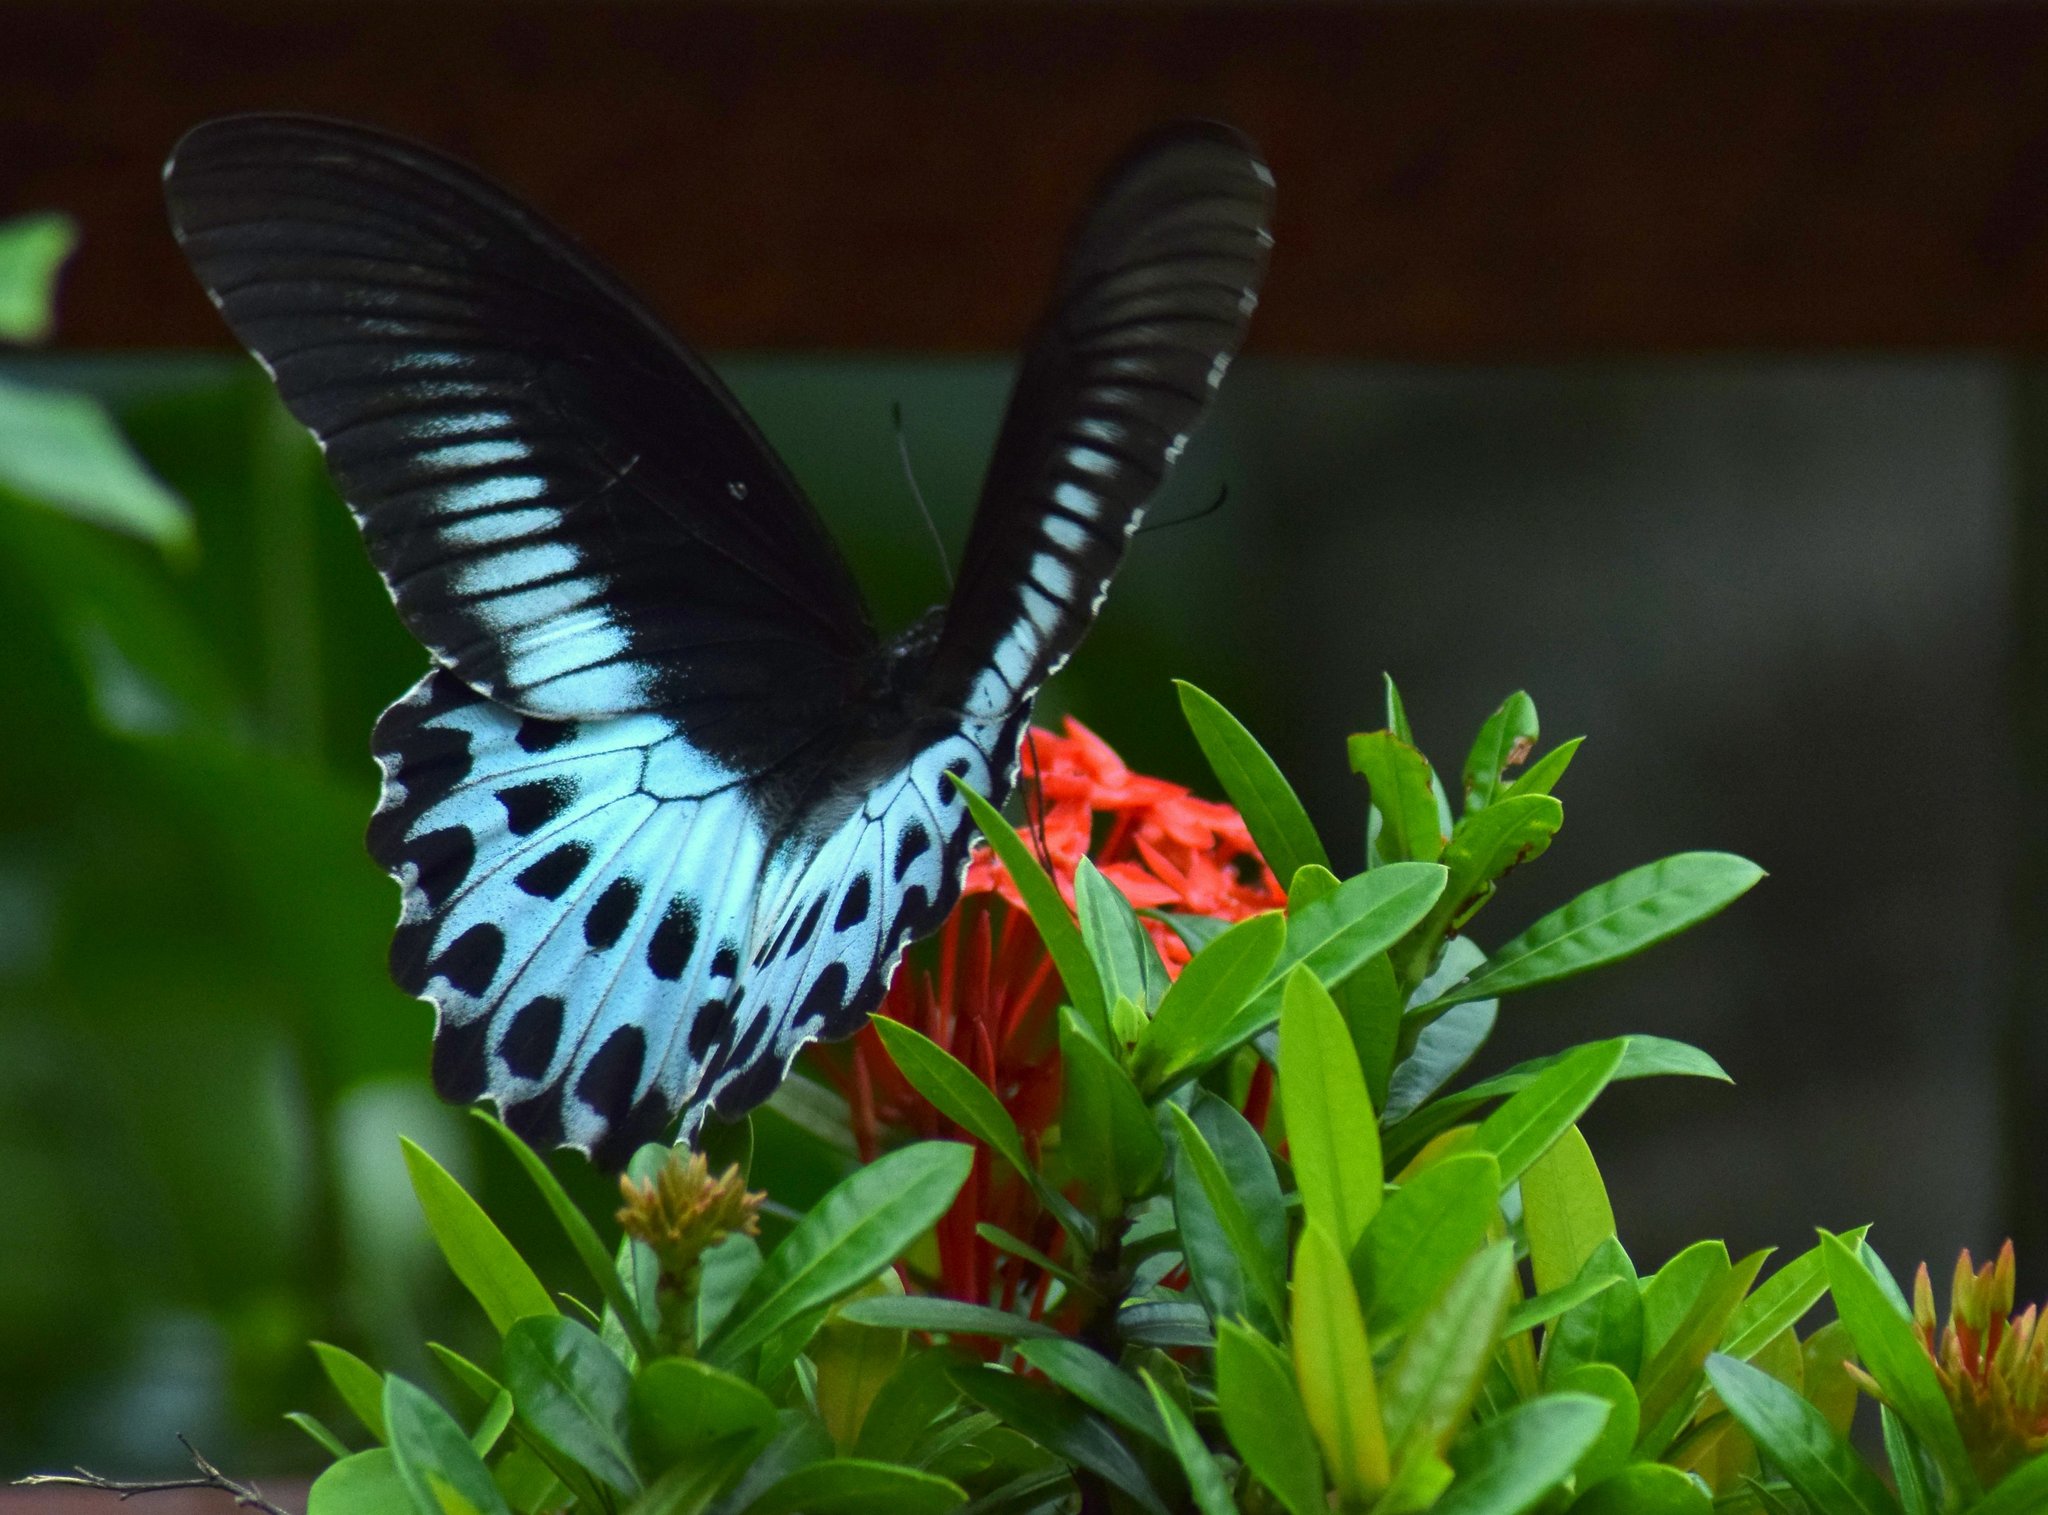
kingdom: Animalia
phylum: Arthropoda
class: Insecta
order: Lepidoptera
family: Papilionidae
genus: Papilio
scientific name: Papilio memnon
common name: Great mormon
